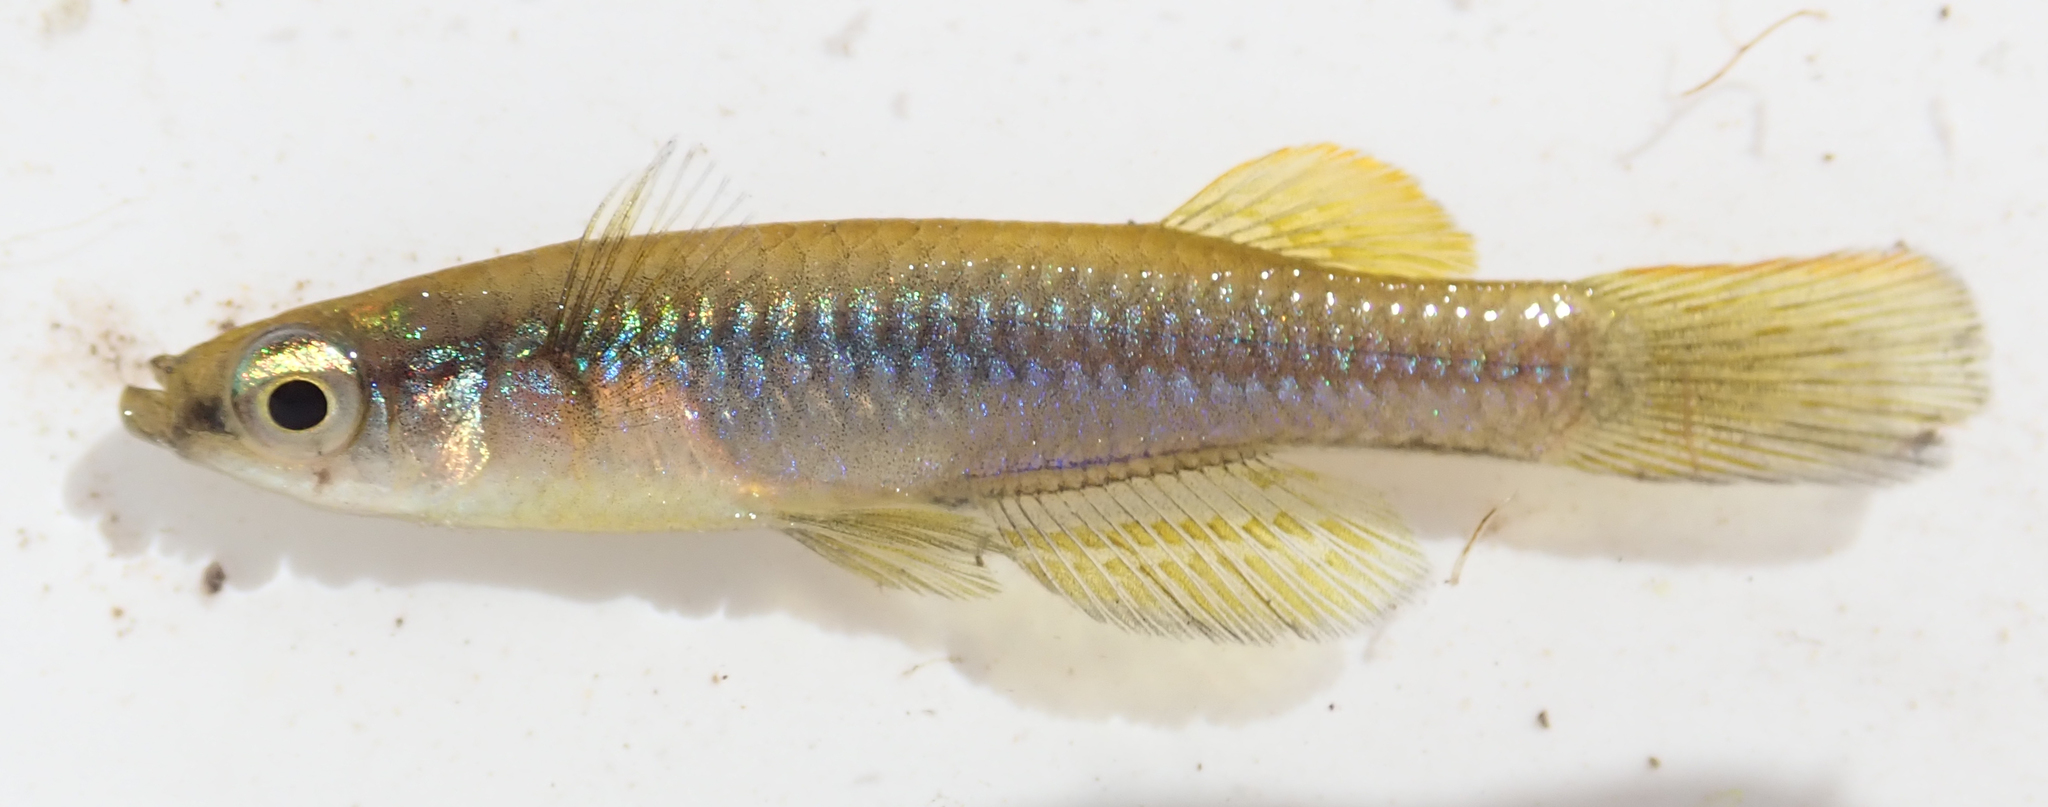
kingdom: Animalia
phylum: Chordata
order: Cyprinodontiformes
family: Poeciliidae
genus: Micropanchax
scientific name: Micropanchax johnstoni
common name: Johnston's topminnow
